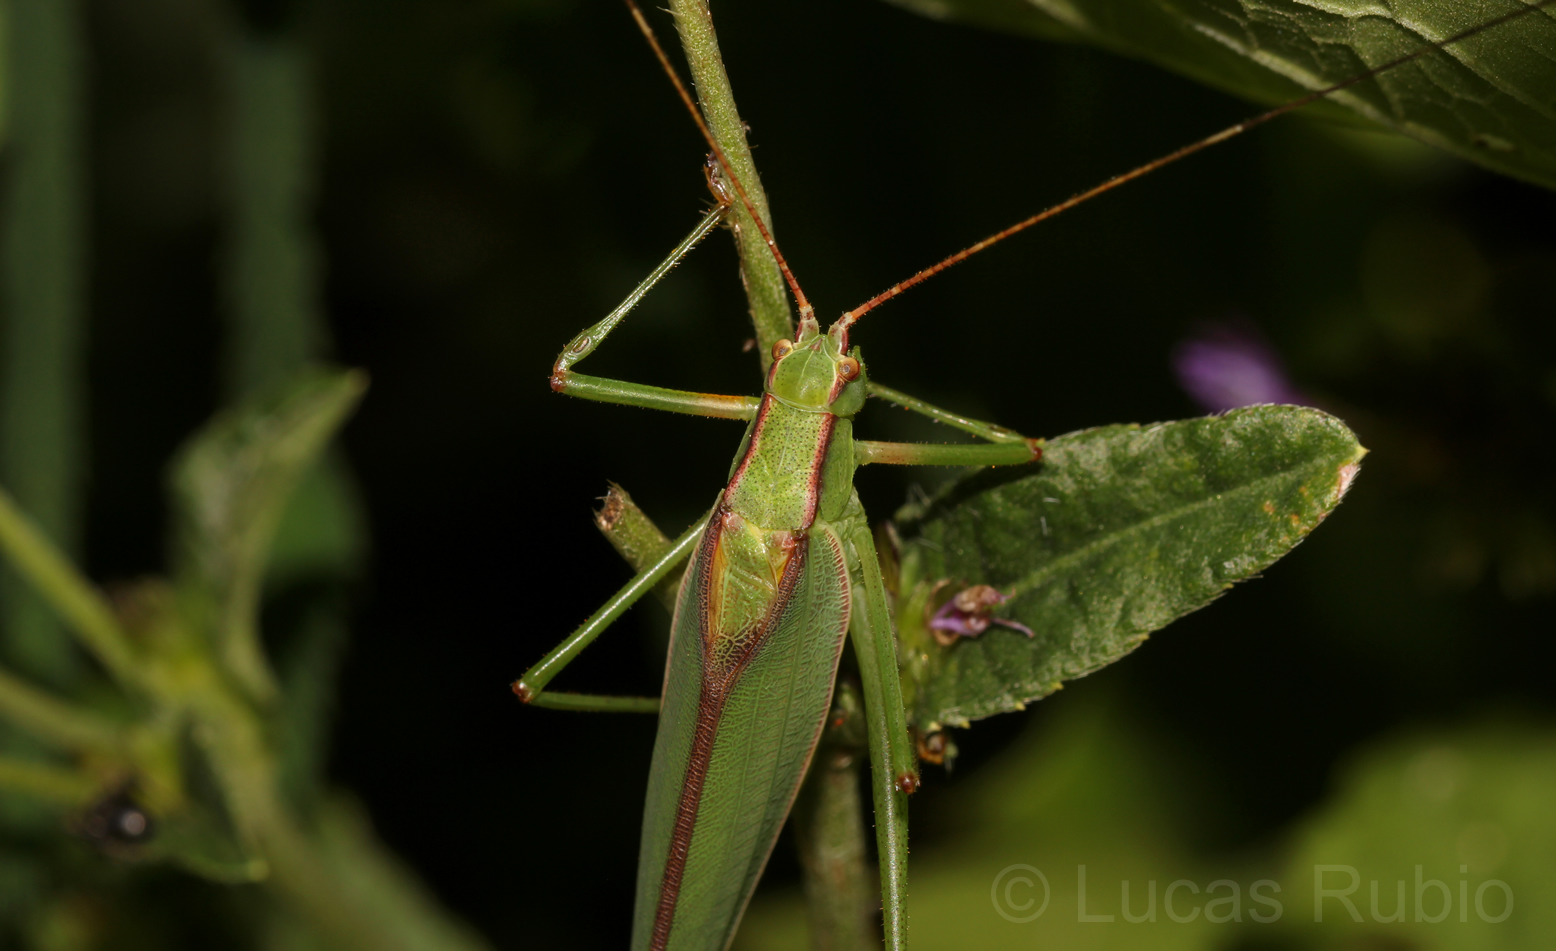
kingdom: Animalia
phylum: Arthropoda
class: Insecta
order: Orthoptera
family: Tettigoniidae
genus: Hyperophora
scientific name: Hyperophora brasiliensis
